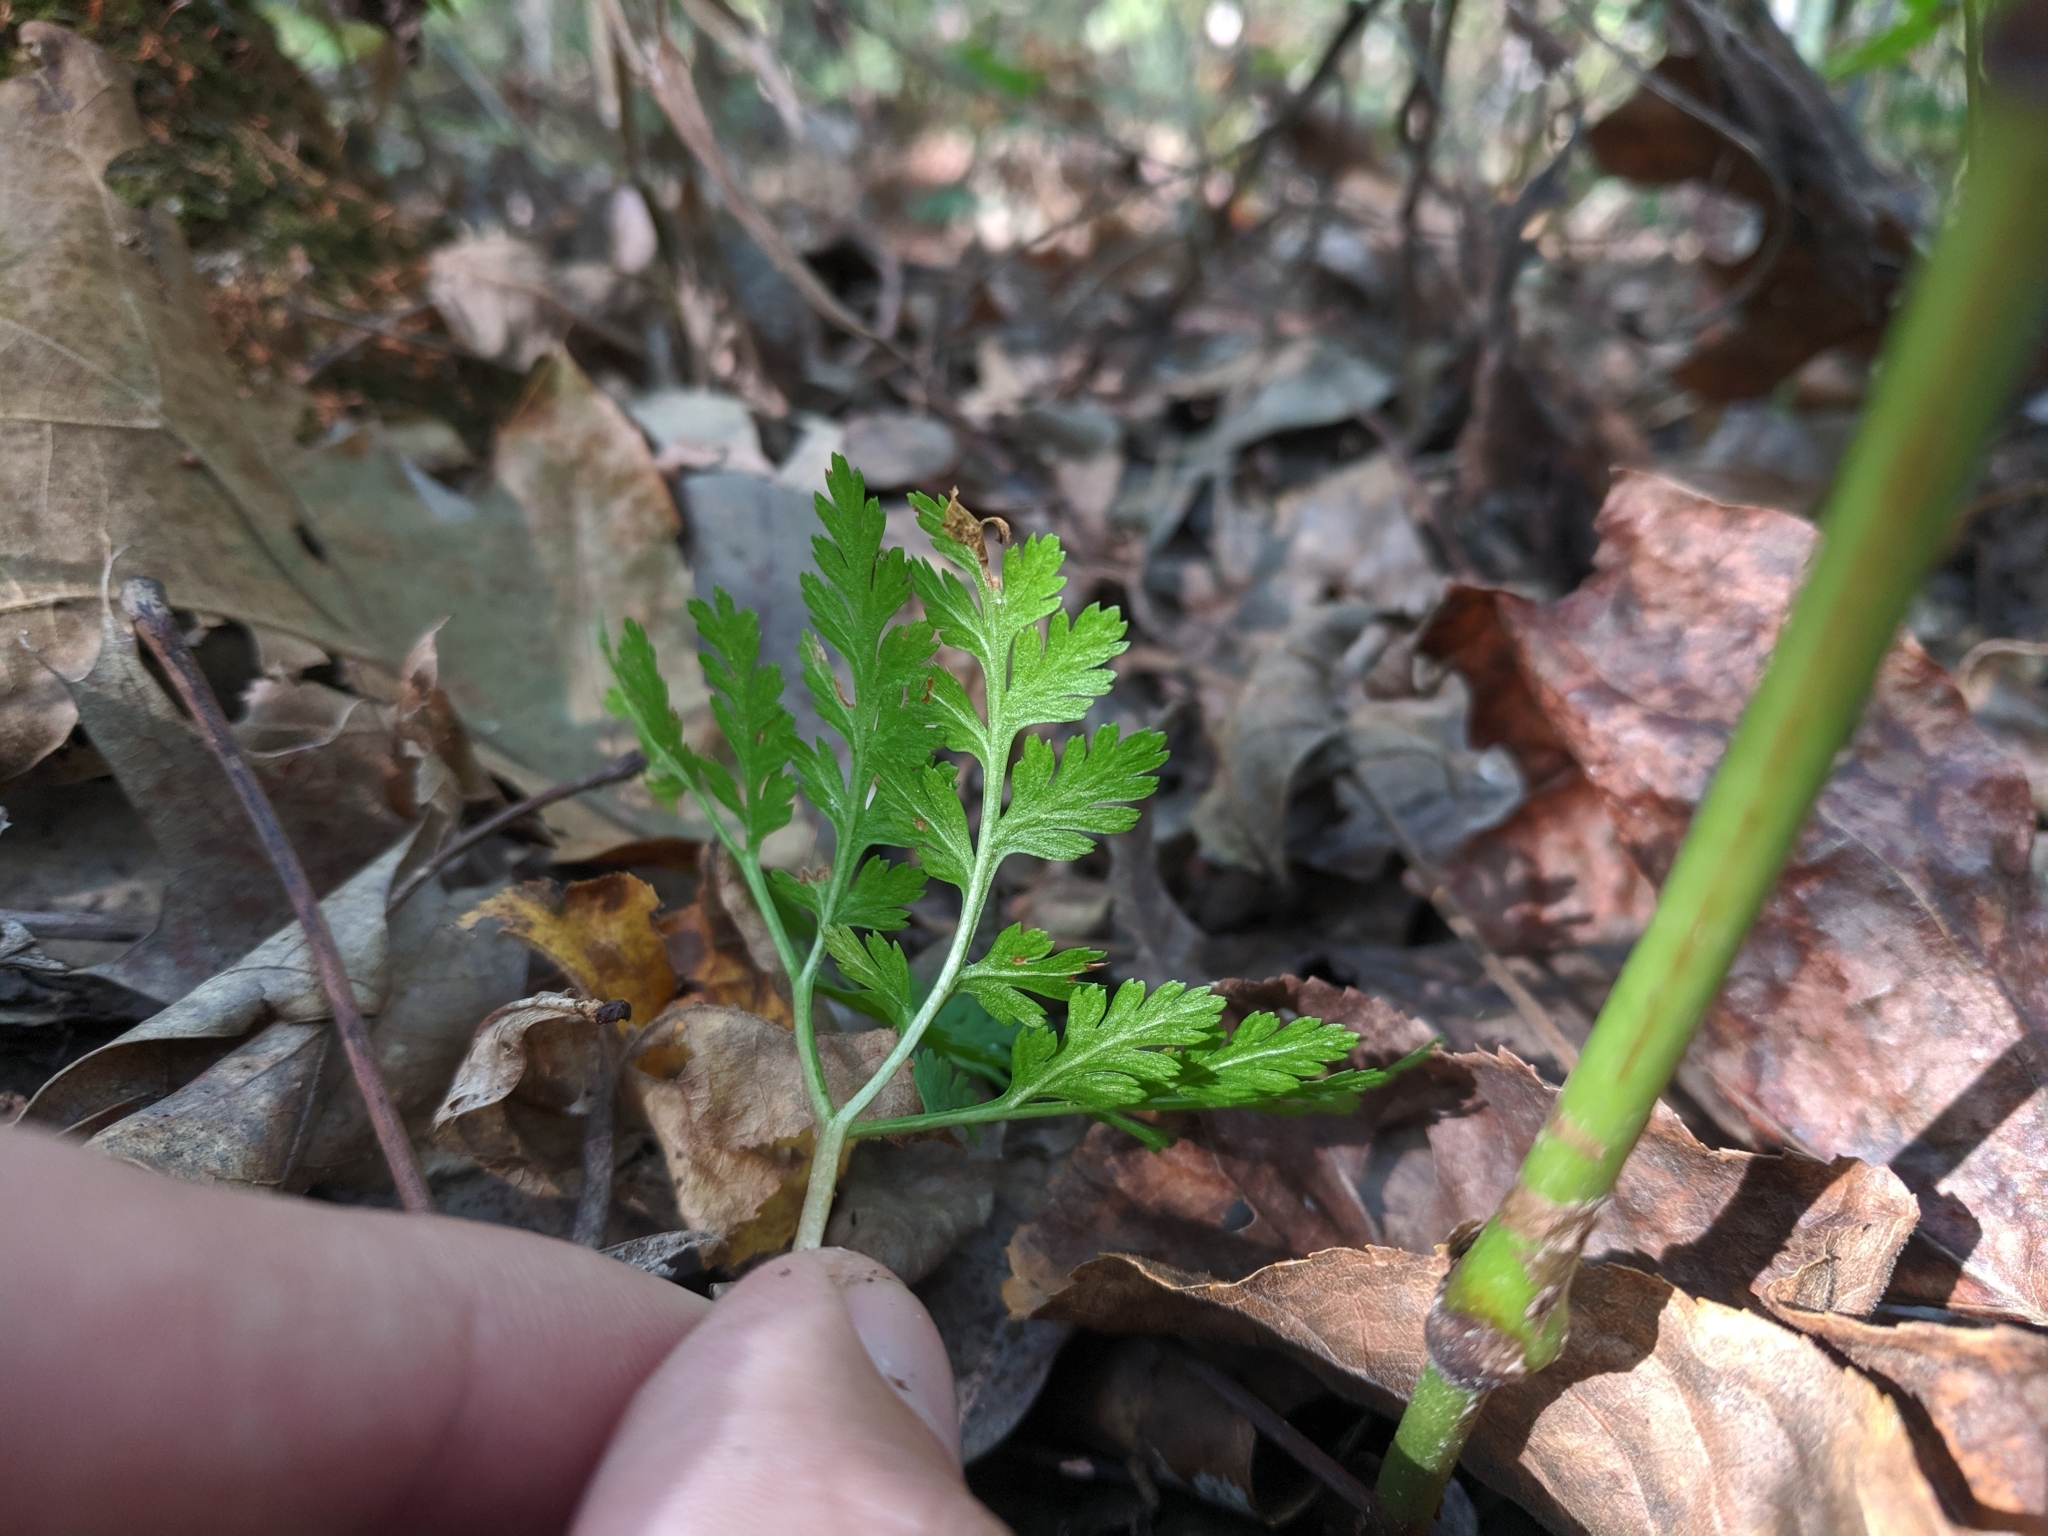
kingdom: Plantae
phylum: Tracheophyta
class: Polypodiopsida
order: Ophioglossales
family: Ophioglossaceae
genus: Botrypus
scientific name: Botrypus virginianus
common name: Common grapefern
